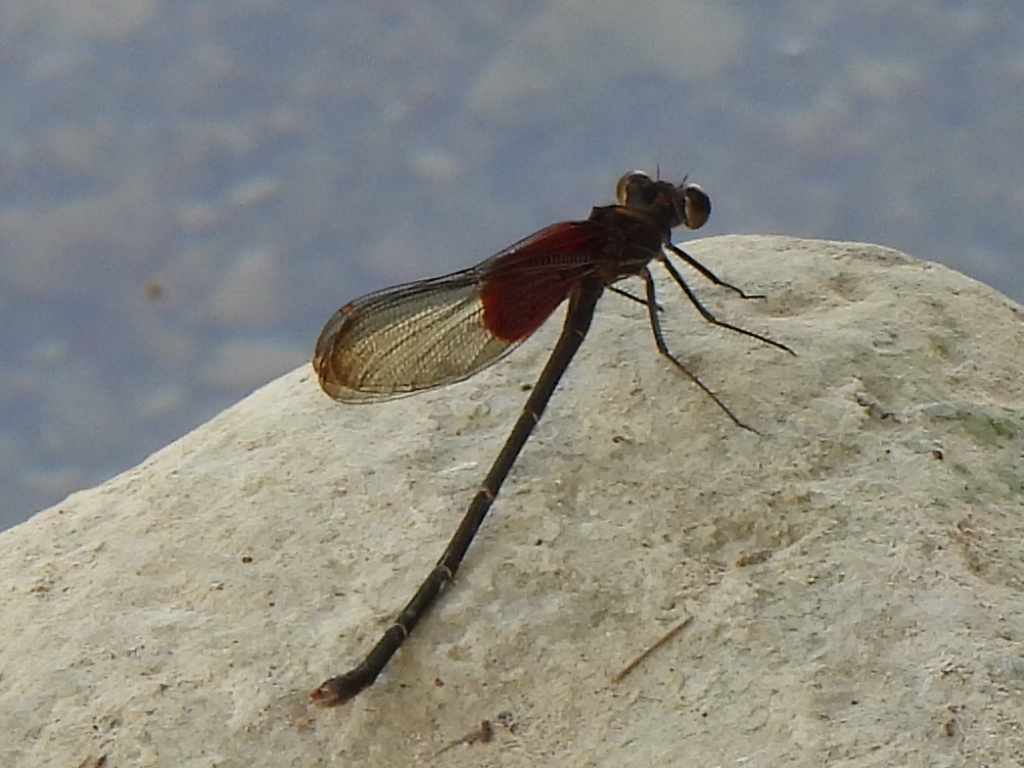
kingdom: Animalia
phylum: Arthropoda
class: Insecta
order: Odonata
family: Calopterygidae
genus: Hetaerina
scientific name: Hetaerina americana
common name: American rubyspot
